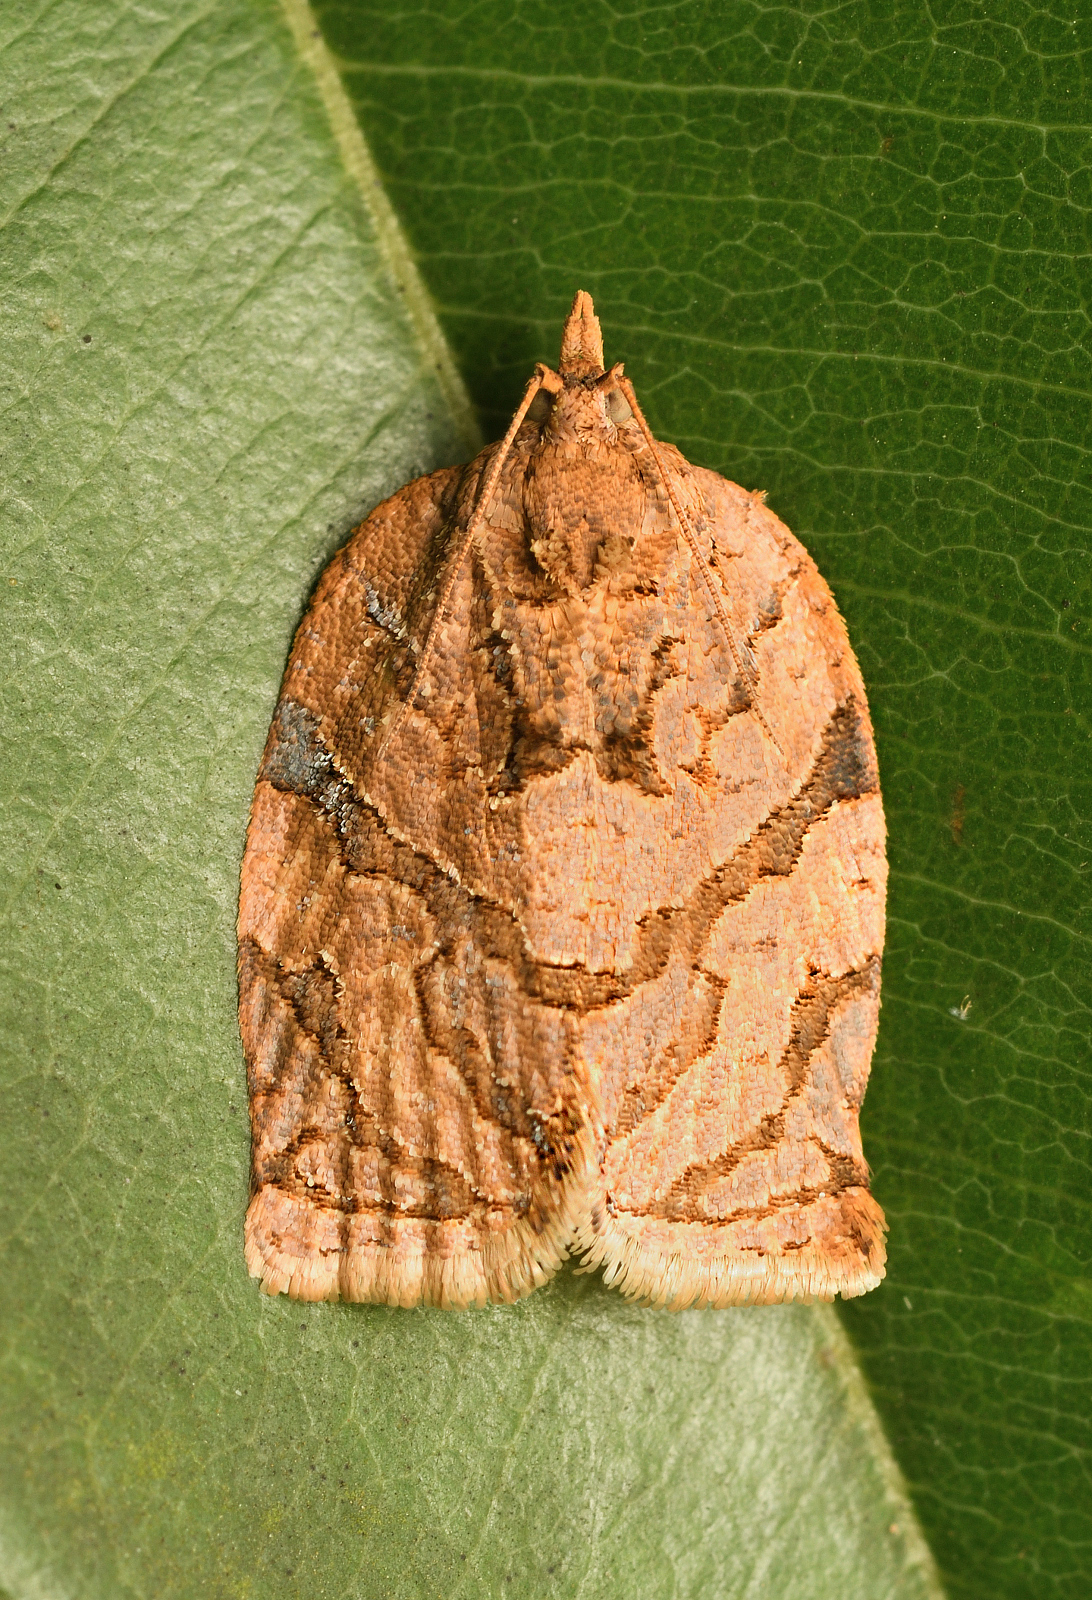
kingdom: Animalia
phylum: Arthropoda
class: Insecta
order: Lepidoptera
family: Tortricidae
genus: Adoxophyes
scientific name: Adoxophyes privatana
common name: Asian orchid tortrix
